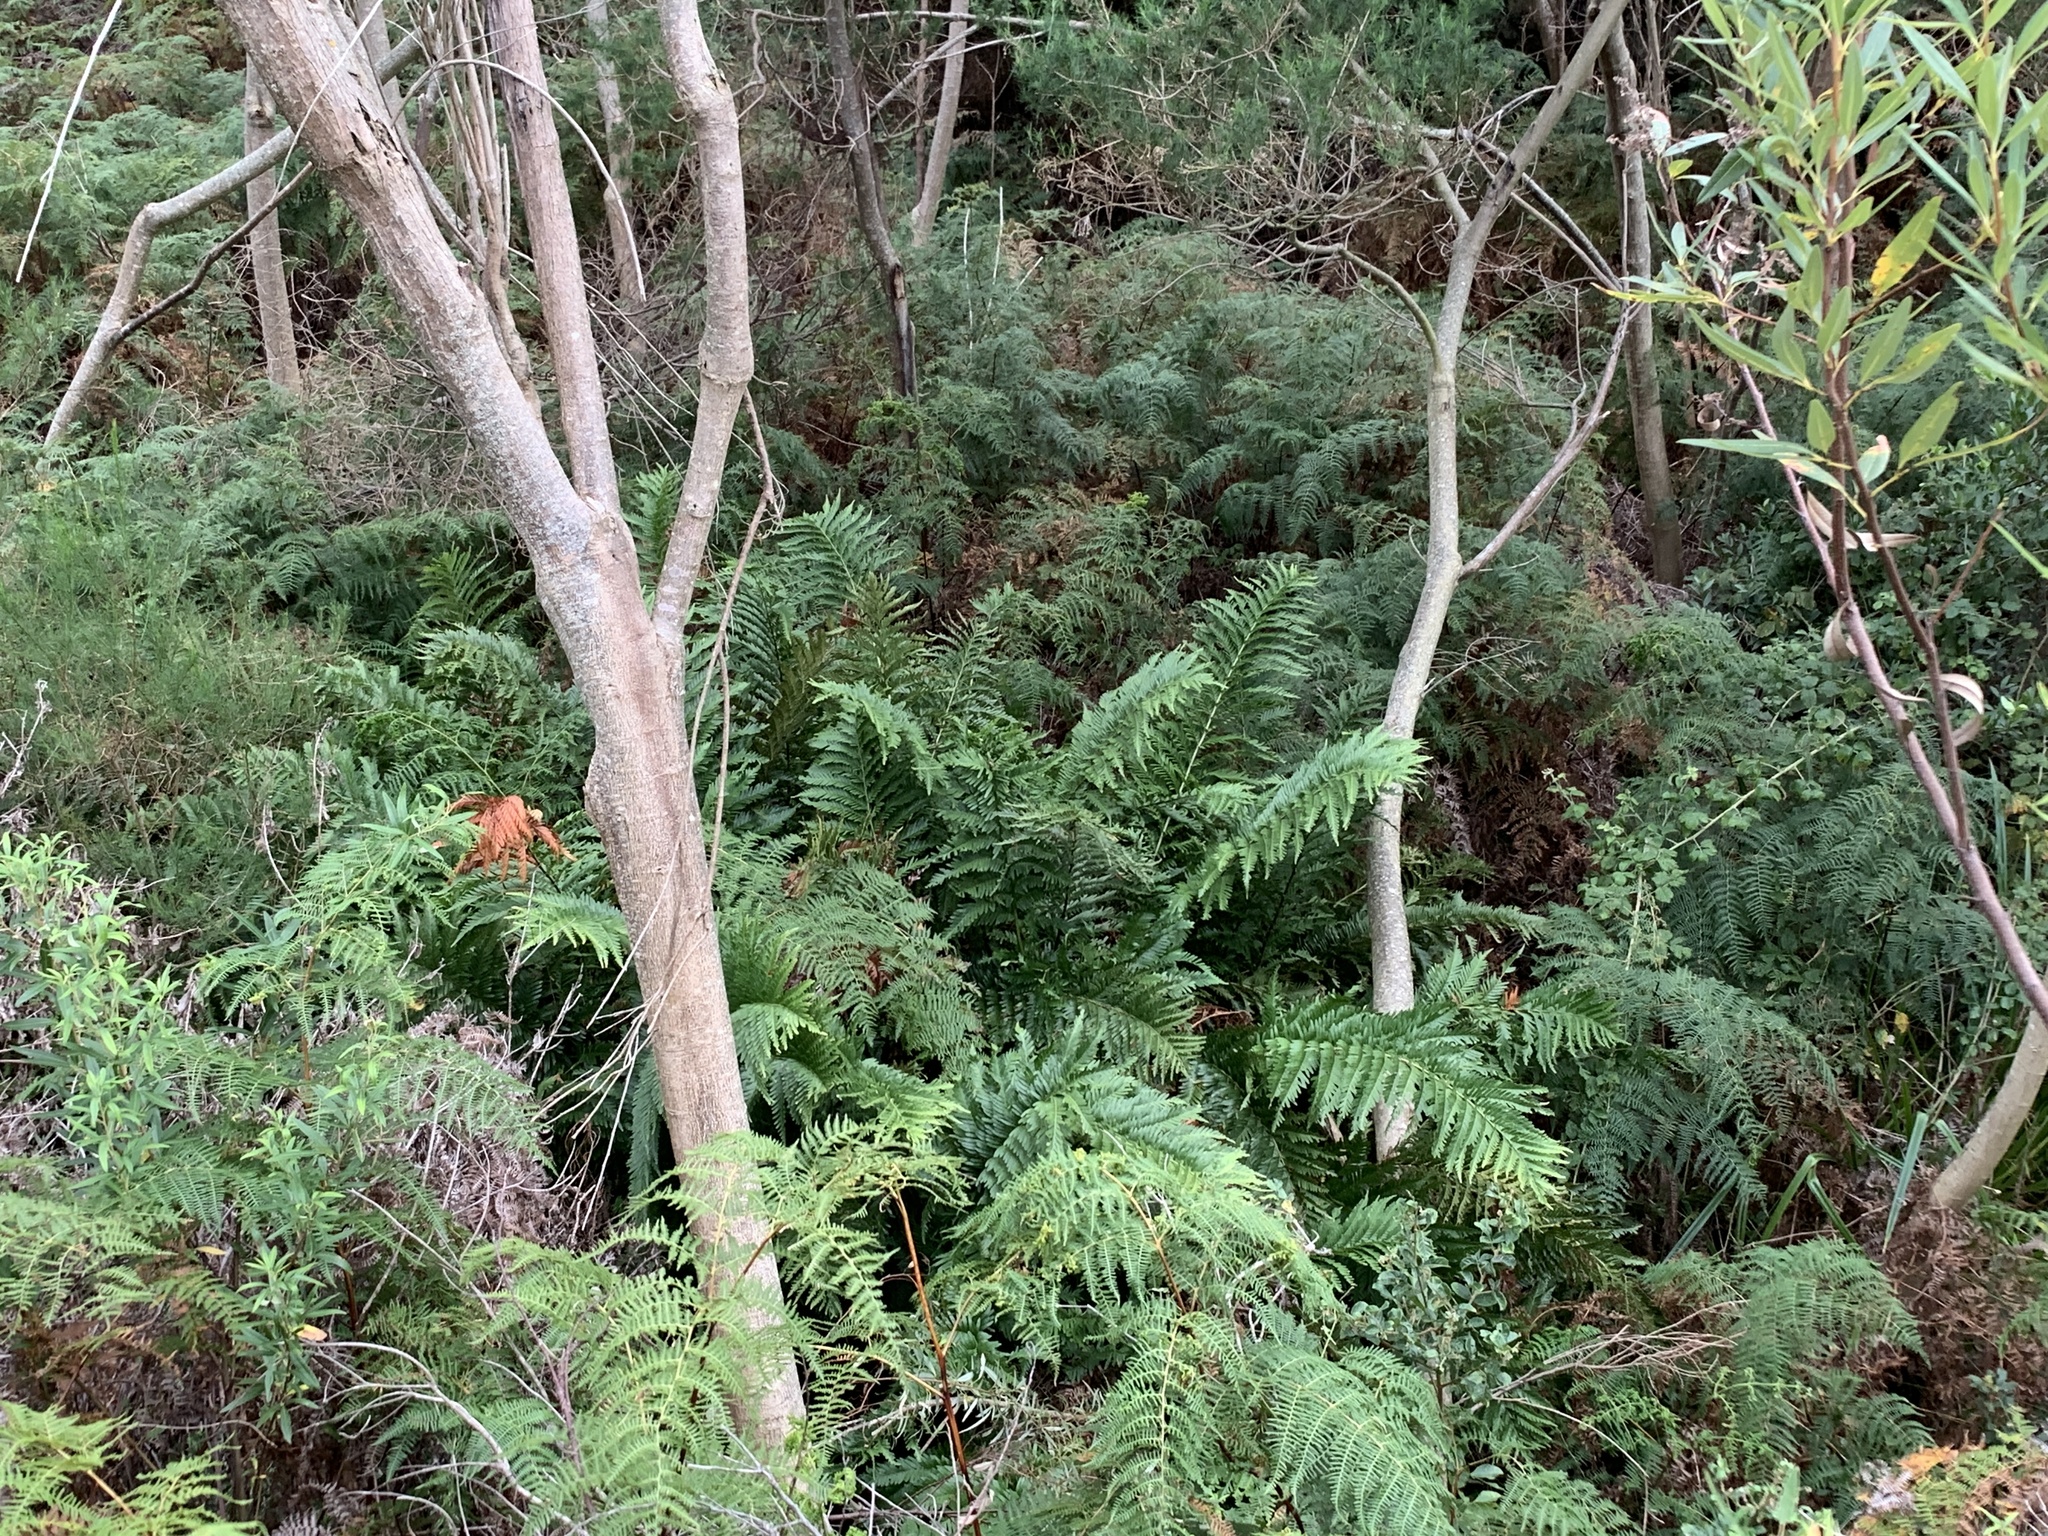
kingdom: Plantae
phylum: Tracheophyta
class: Polypodiopsida
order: Osmundales
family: Osmundaceae
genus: Todea
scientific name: Todea barbara
